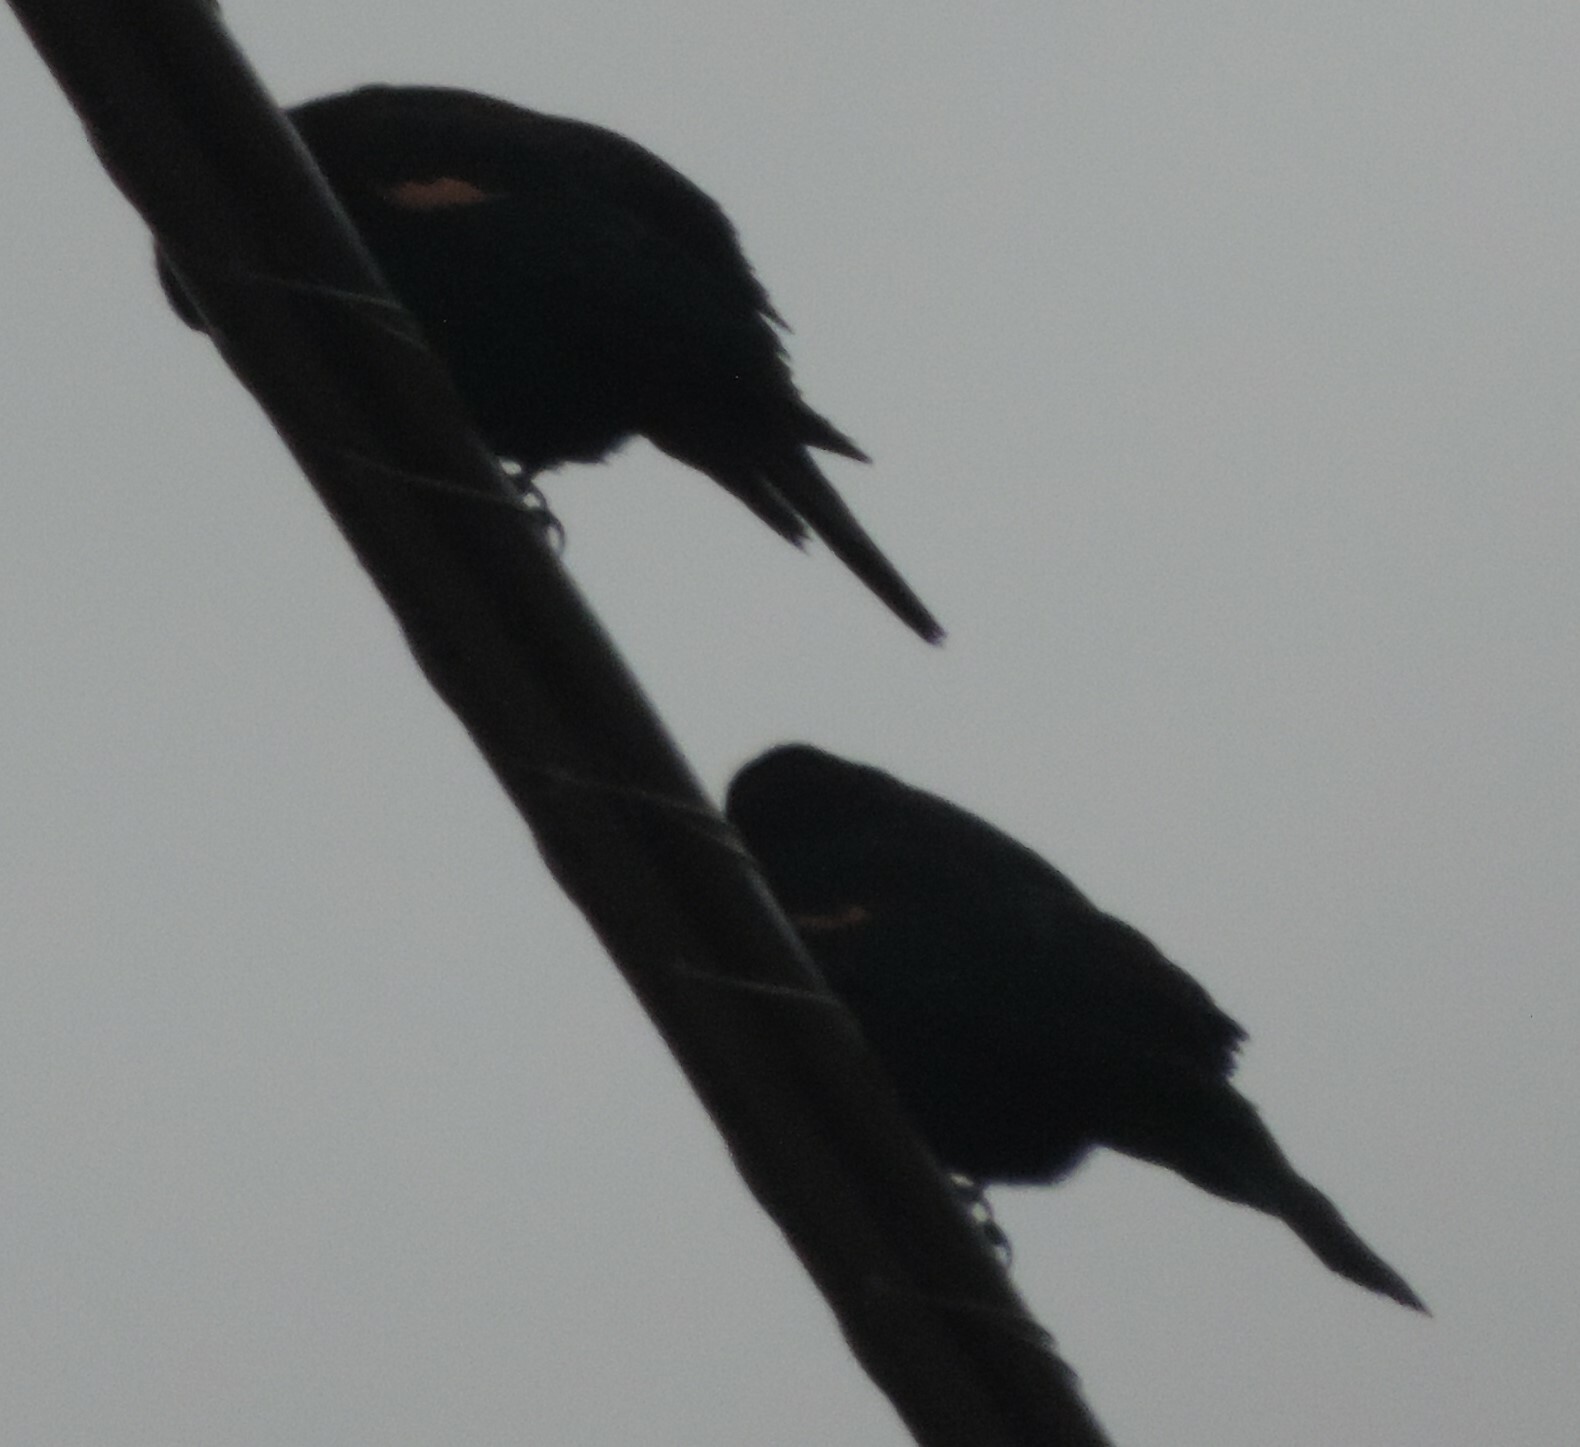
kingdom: Animalia
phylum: Chordata
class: Aves
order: Passeriformes
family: Icteridae
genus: Agelaius
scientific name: Agelaius phoeniceus
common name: Red-winged blackbird
